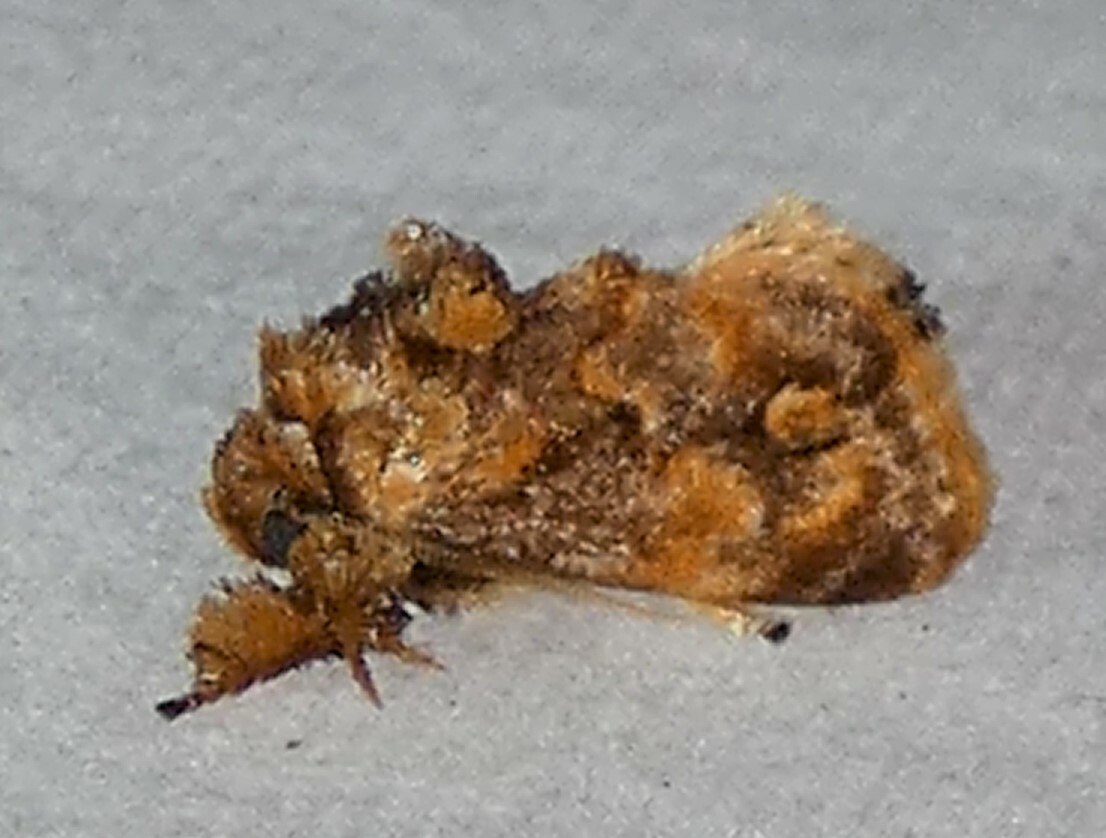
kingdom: Animalia
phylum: Arthropoda
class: Insecta
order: Lepidoptera
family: Limacodidae
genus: Isochaetes
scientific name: Isochaetes beutenmuelleri
